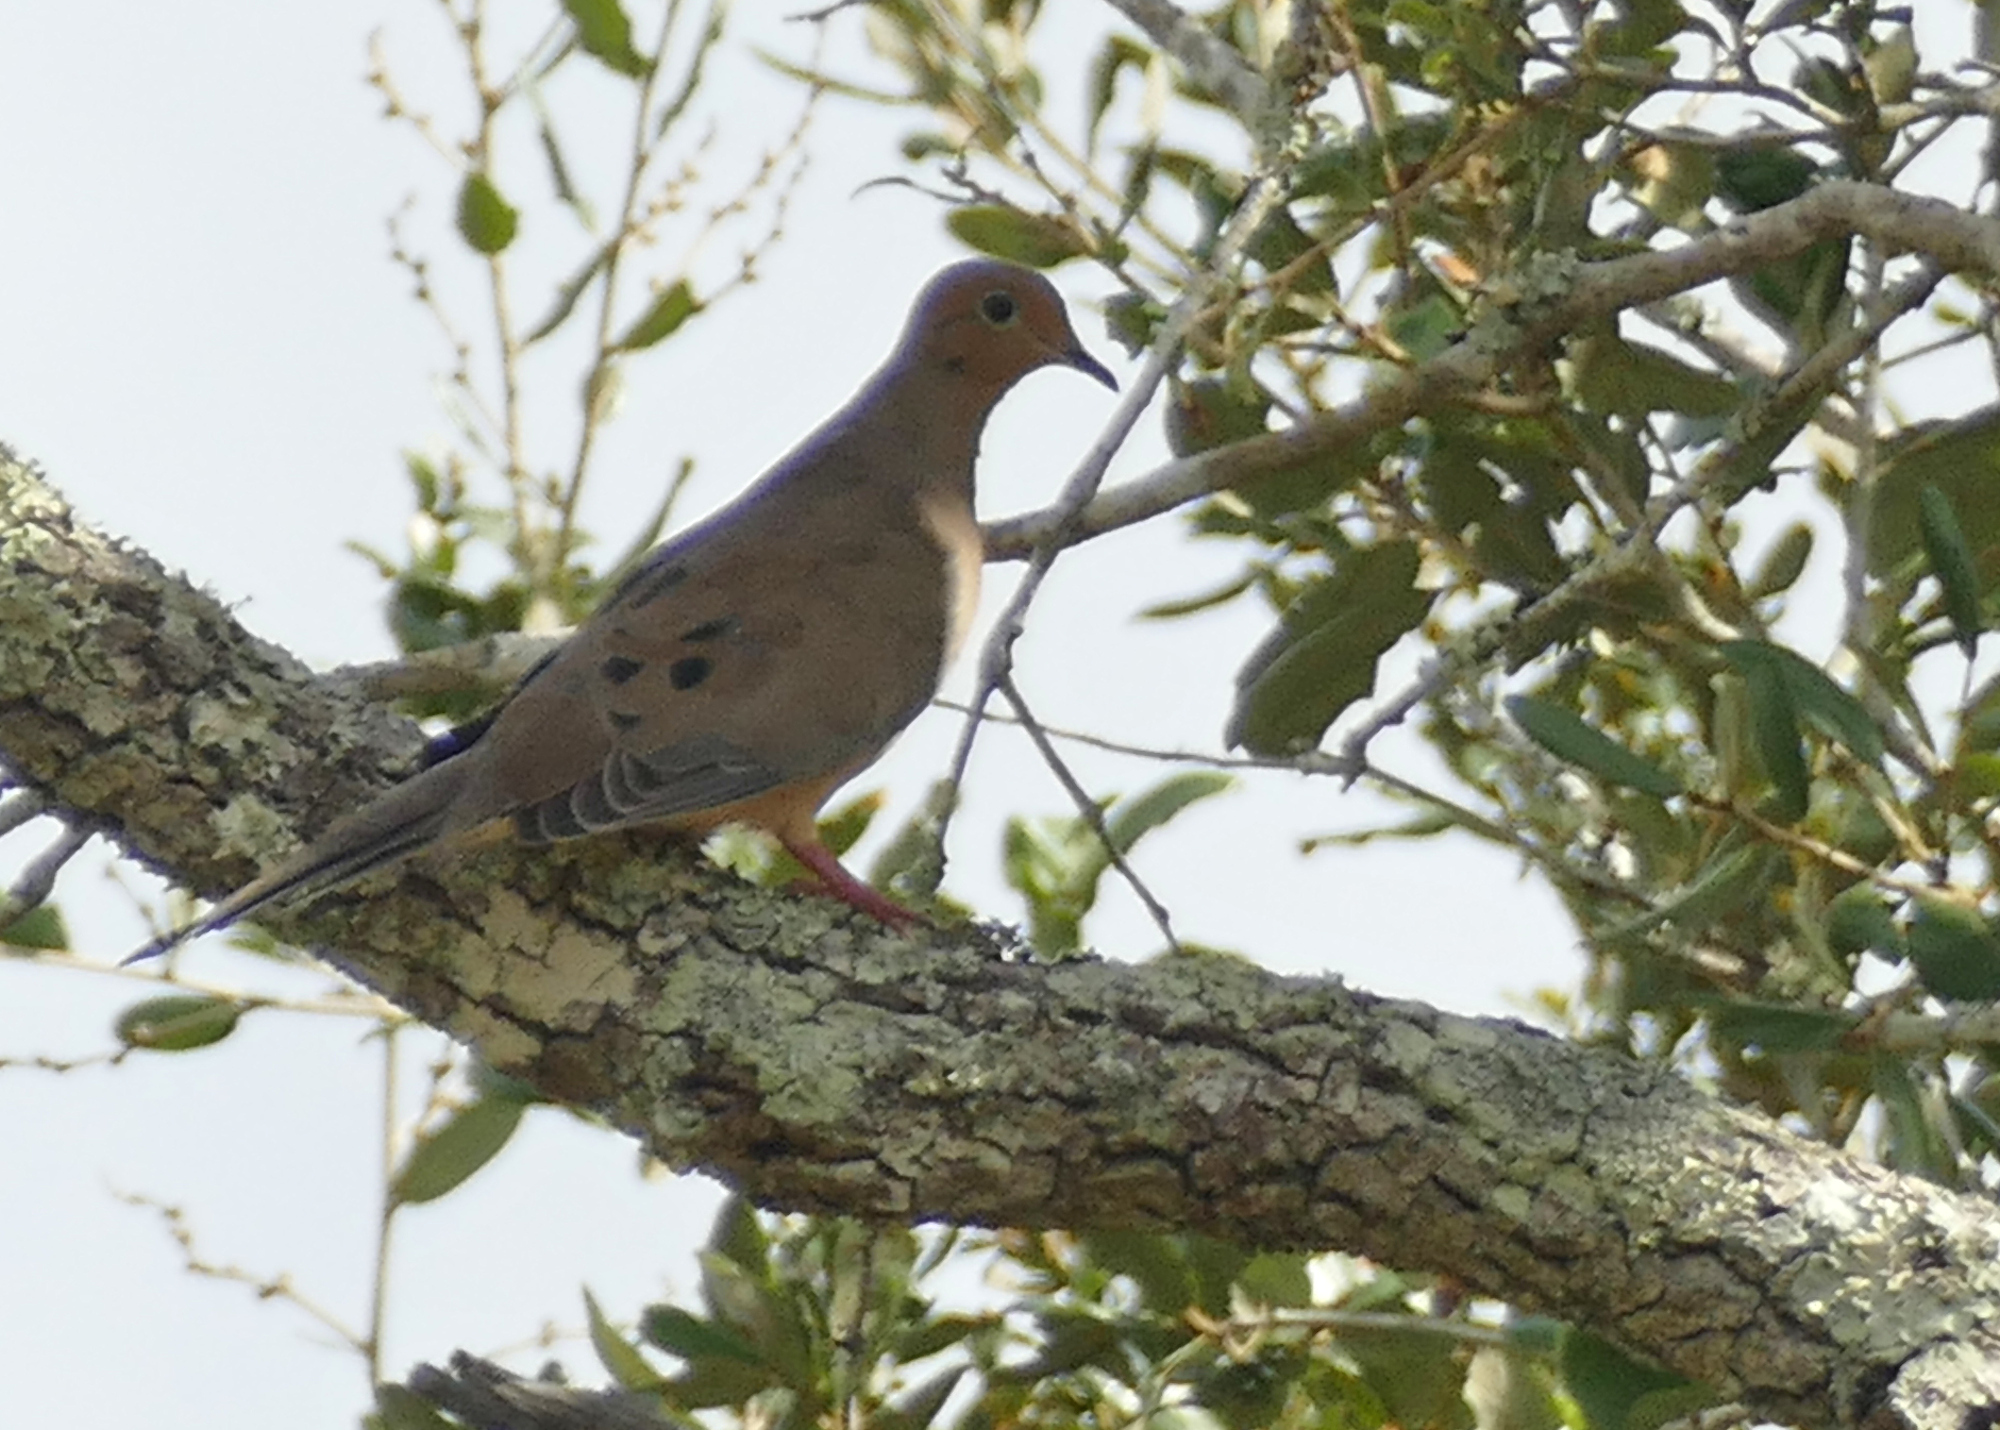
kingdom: Animalia
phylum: Chordata
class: Aves
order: Columbiformes
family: Columbidae
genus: Zenaida
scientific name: Zenaida macroura
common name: Mourning dove
